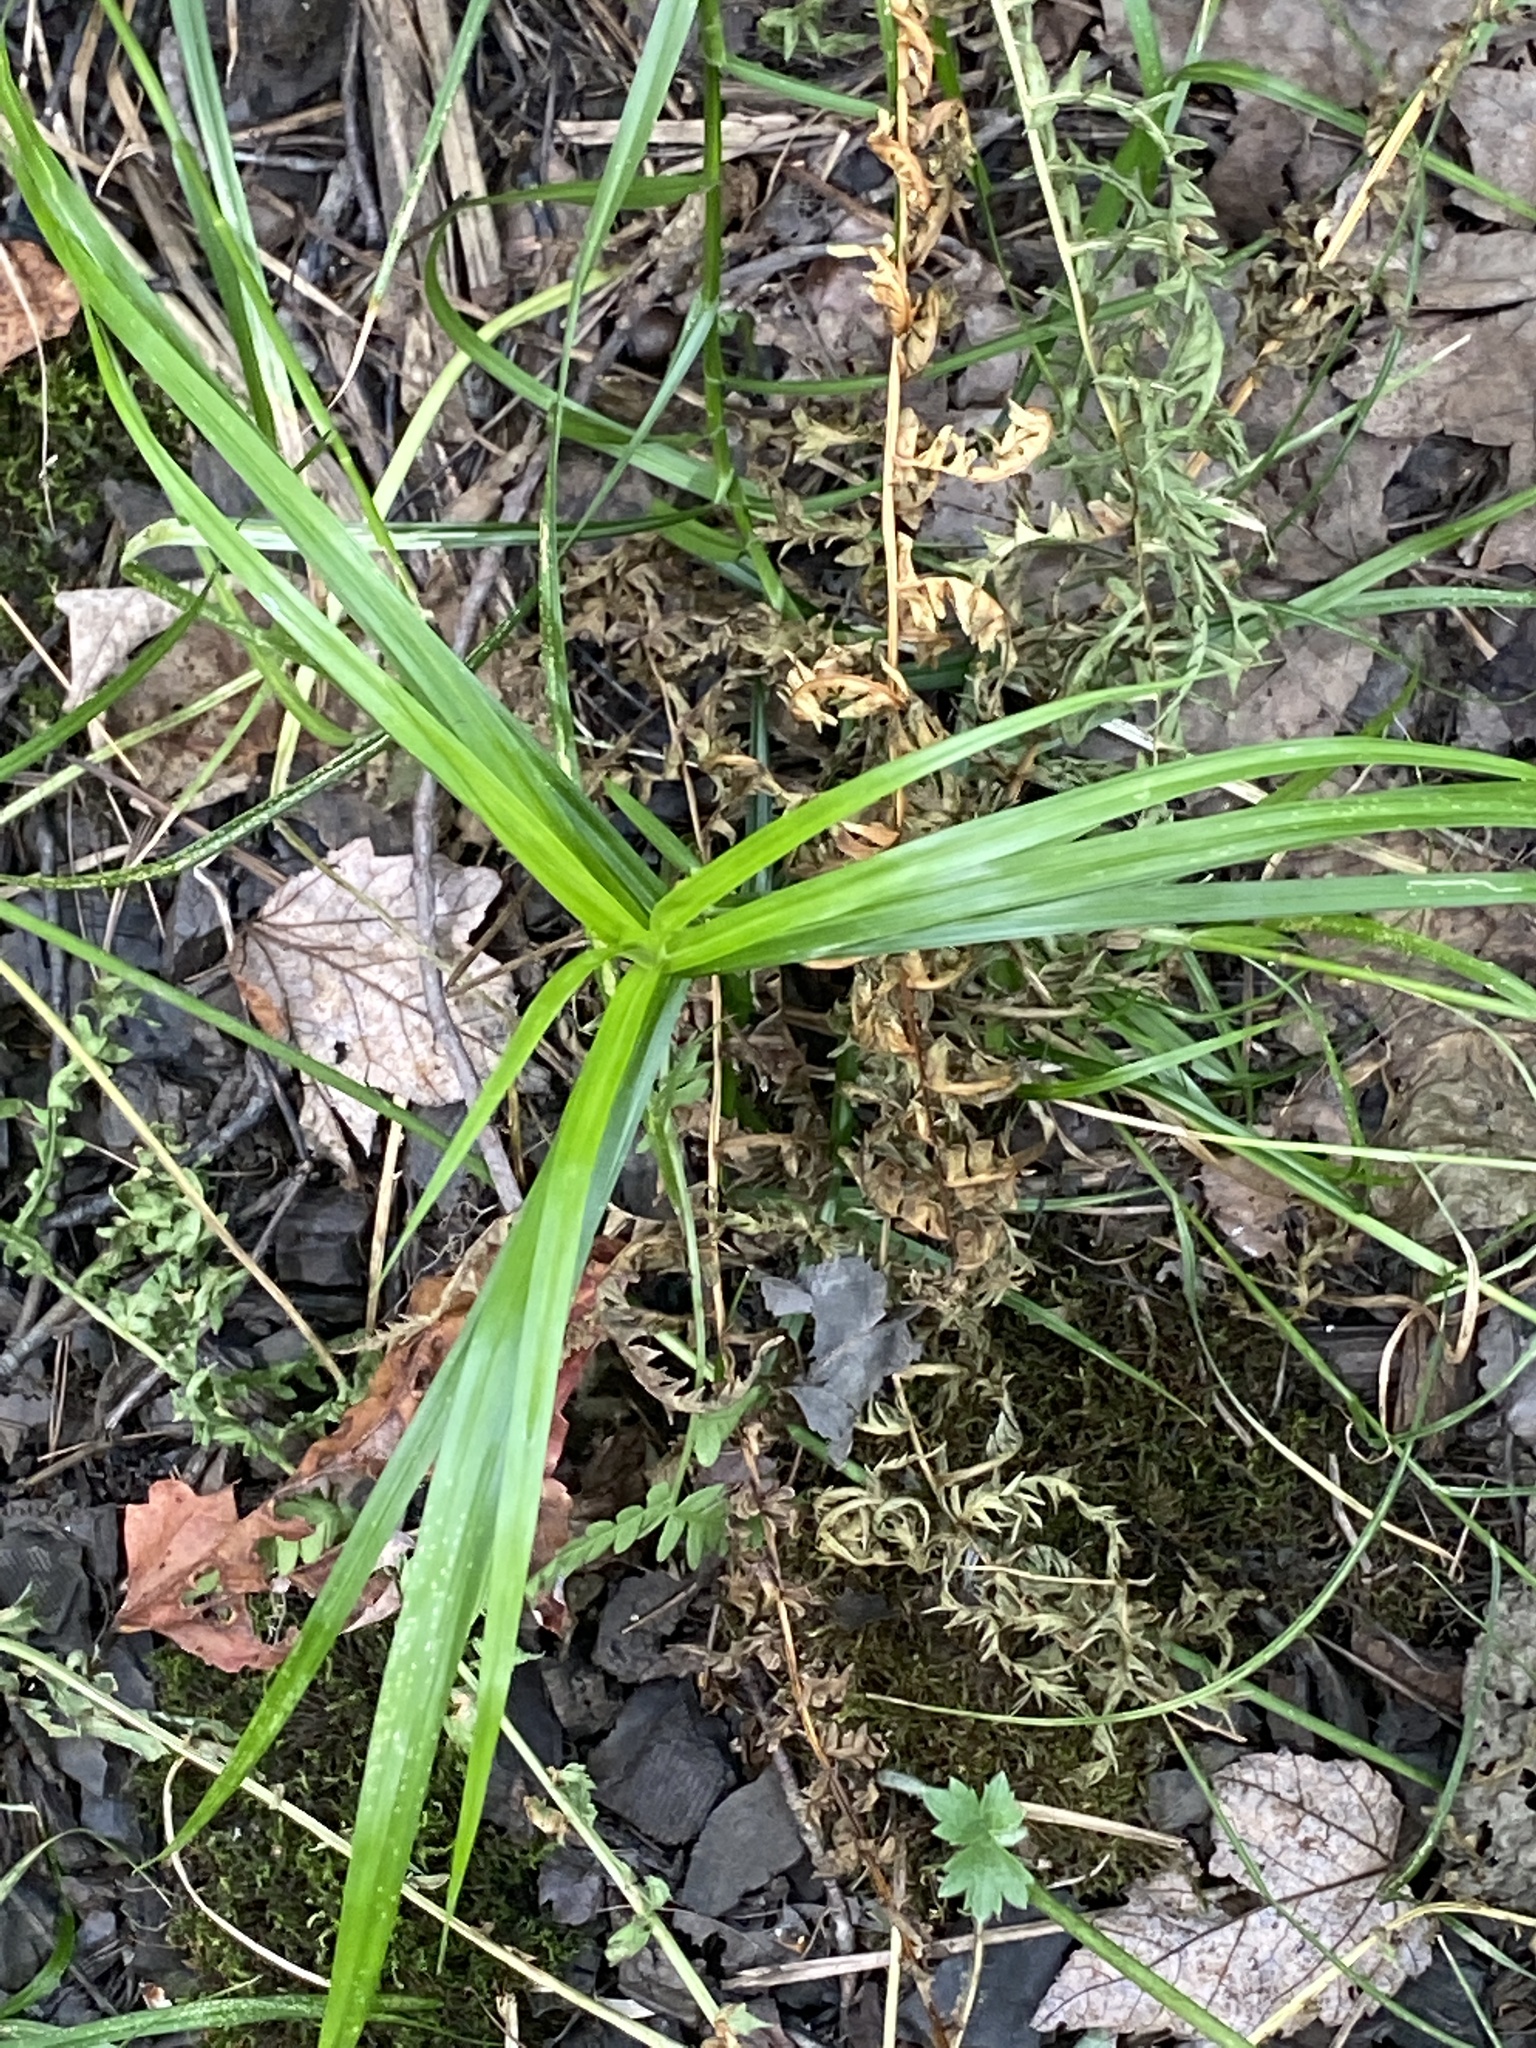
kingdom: Plantae
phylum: Tracheophyta
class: Liliopsida
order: Poales
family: Cyperaceae
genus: Dulichium
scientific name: Dulichium arundinaceum
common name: Three-way sedge
